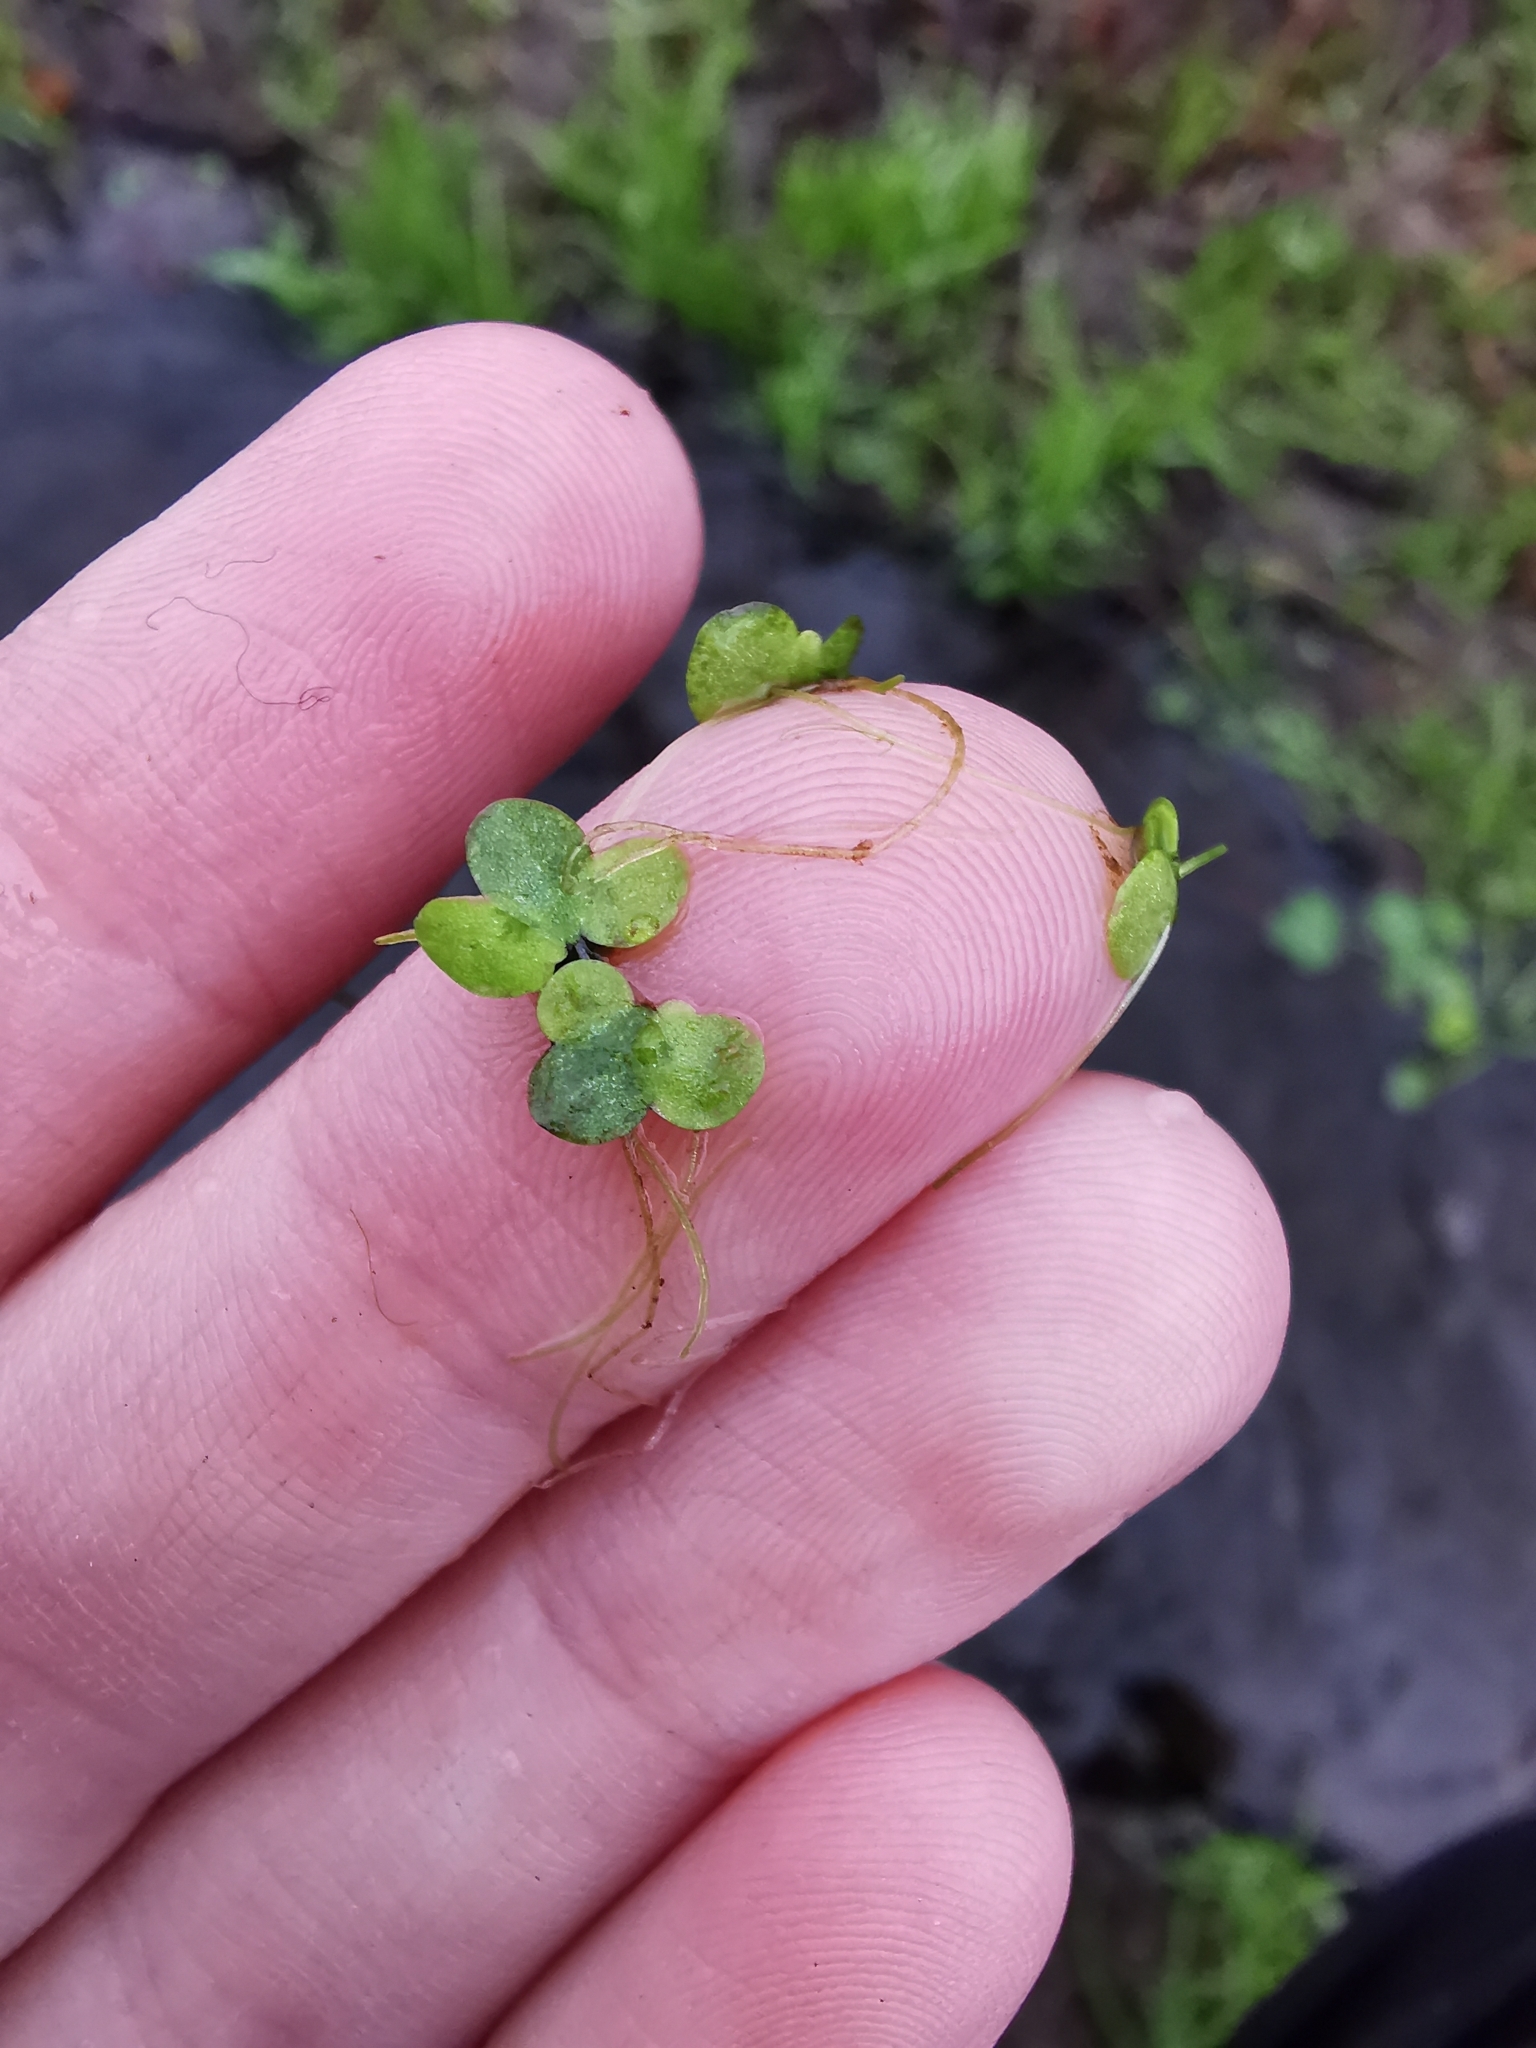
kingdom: Plantae
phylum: Tracheophyta
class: Liliopsida
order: Alismatales
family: Araceae
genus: Lemna
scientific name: Lemna turionifera
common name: Perennial duckweed
